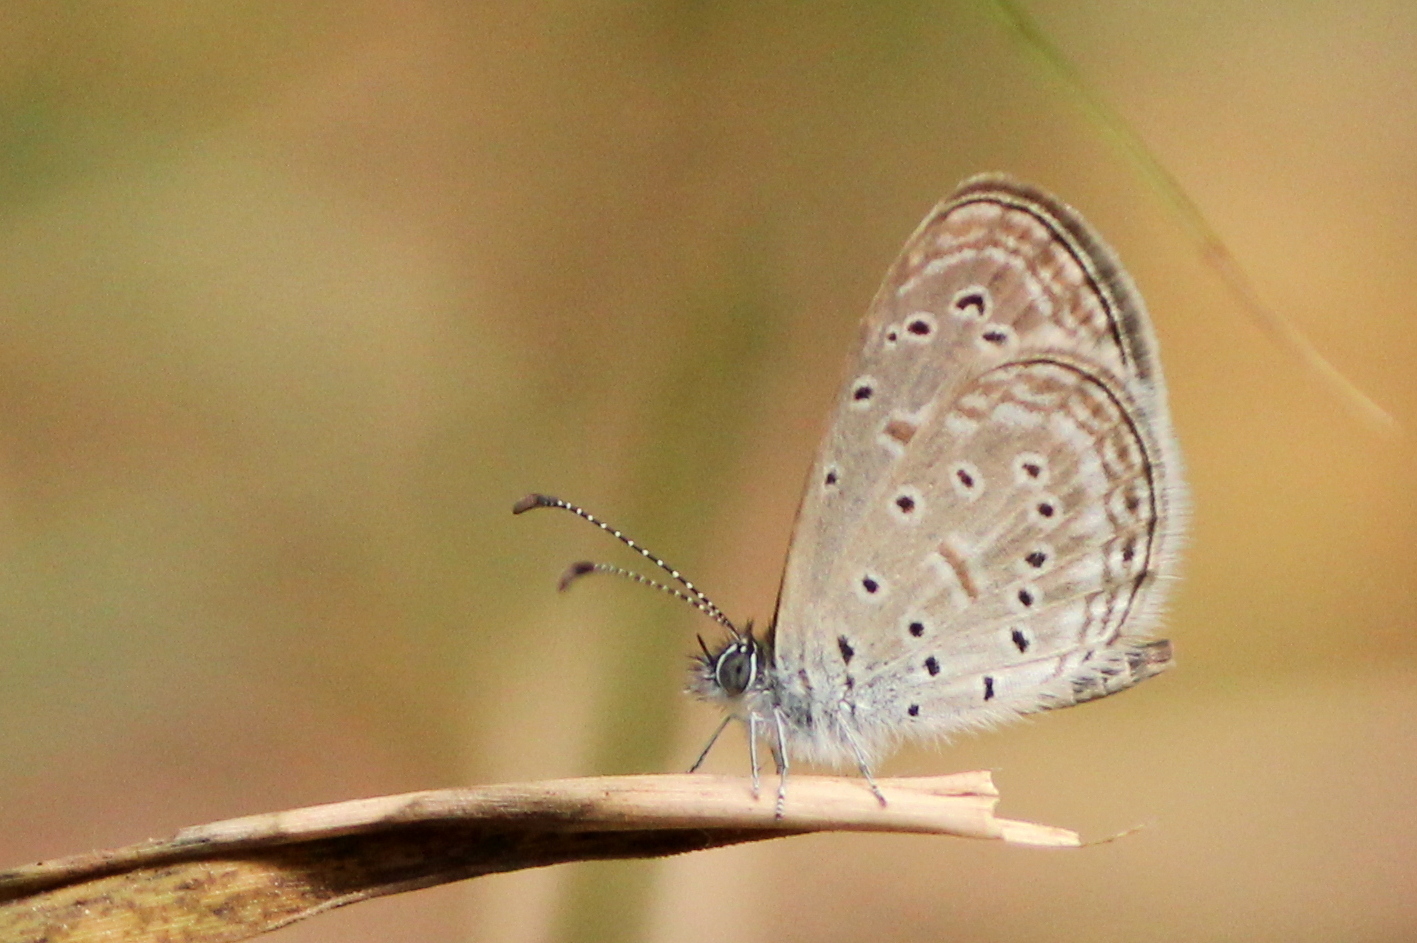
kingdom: Animalia
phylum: Arthropoda
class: Insecta
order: Lepidoptera
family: Lycaenidae
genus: Zizula
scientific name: Zizula hylax
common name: Gaika blue
